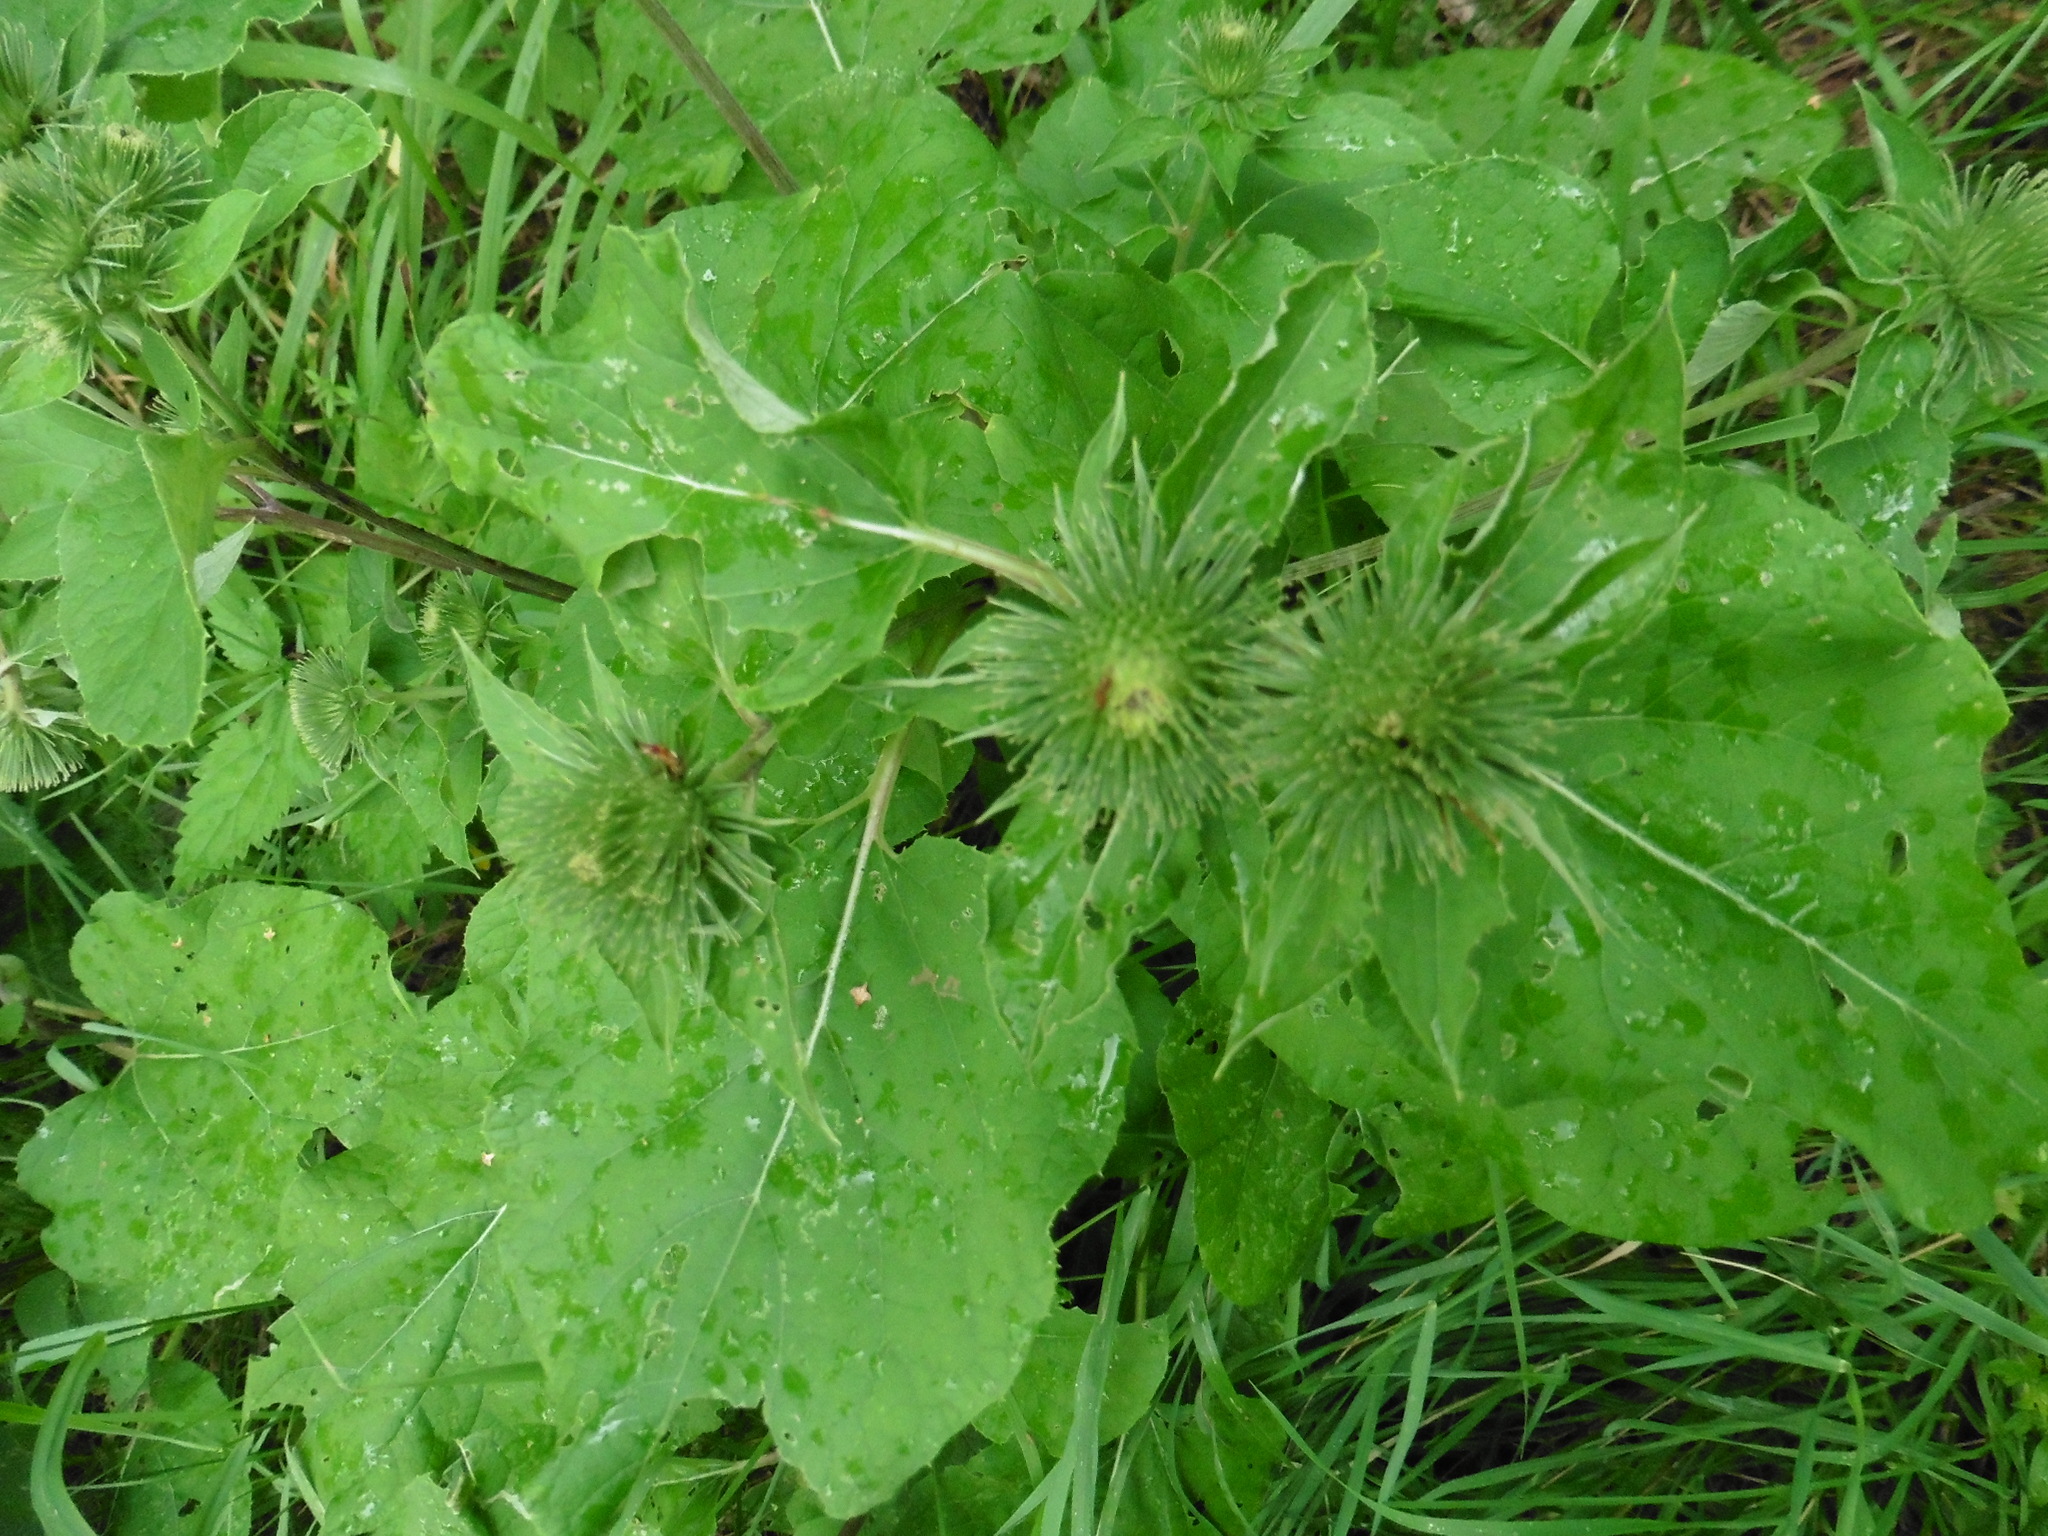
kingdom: Plantae
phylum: Tracheophyta
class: Magnoliopsida
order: Asterales
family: Asteraceae
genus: Arctium
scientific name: Arctium lappa
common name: Greater burdock
